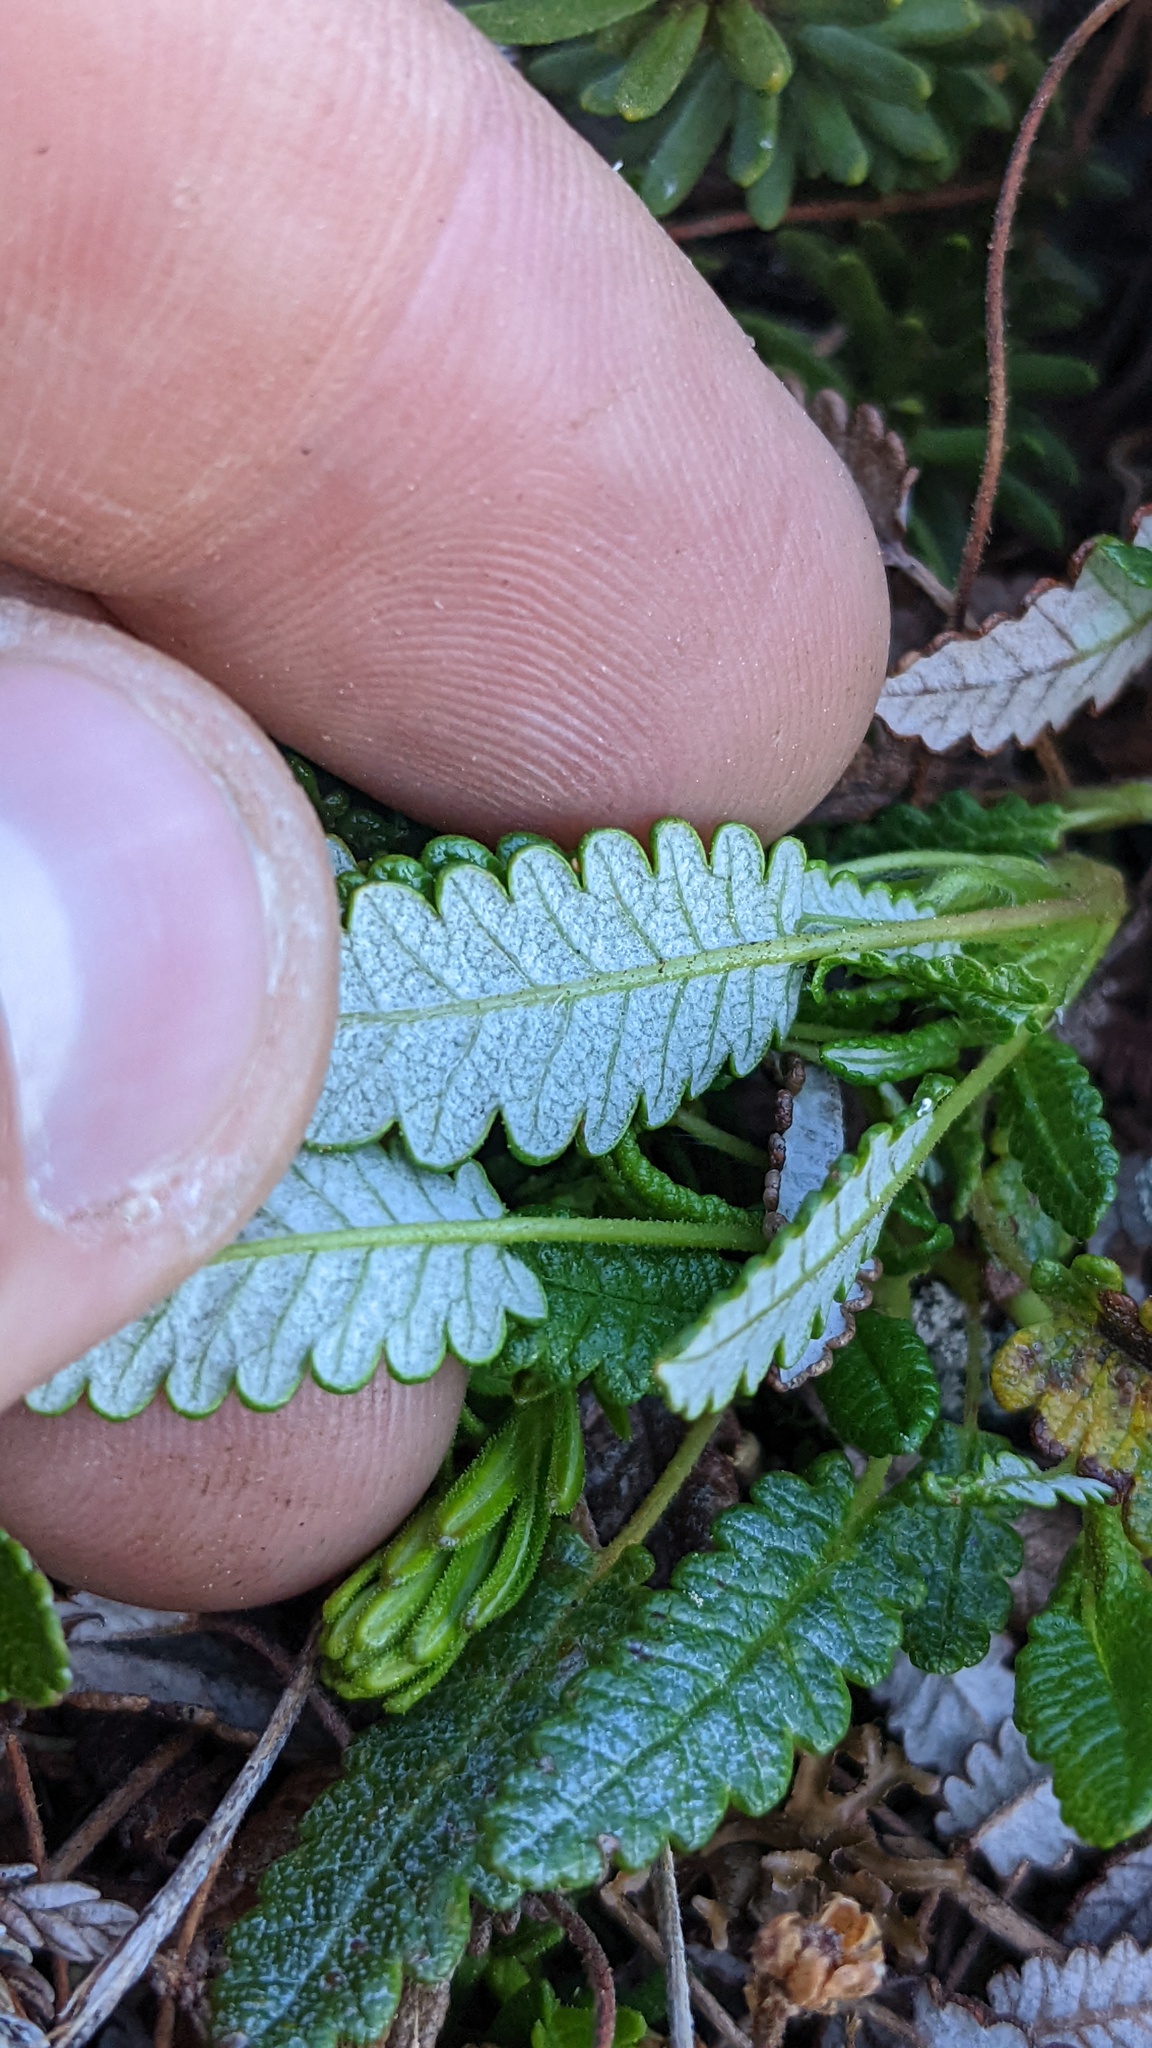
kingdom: Plantae
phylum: Tracheophyta
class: Magnoliopsida
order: Rosales
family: Rosaceae
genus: Dryas
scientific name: Dryas octopetala
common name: Eight-petal mountain-avens
